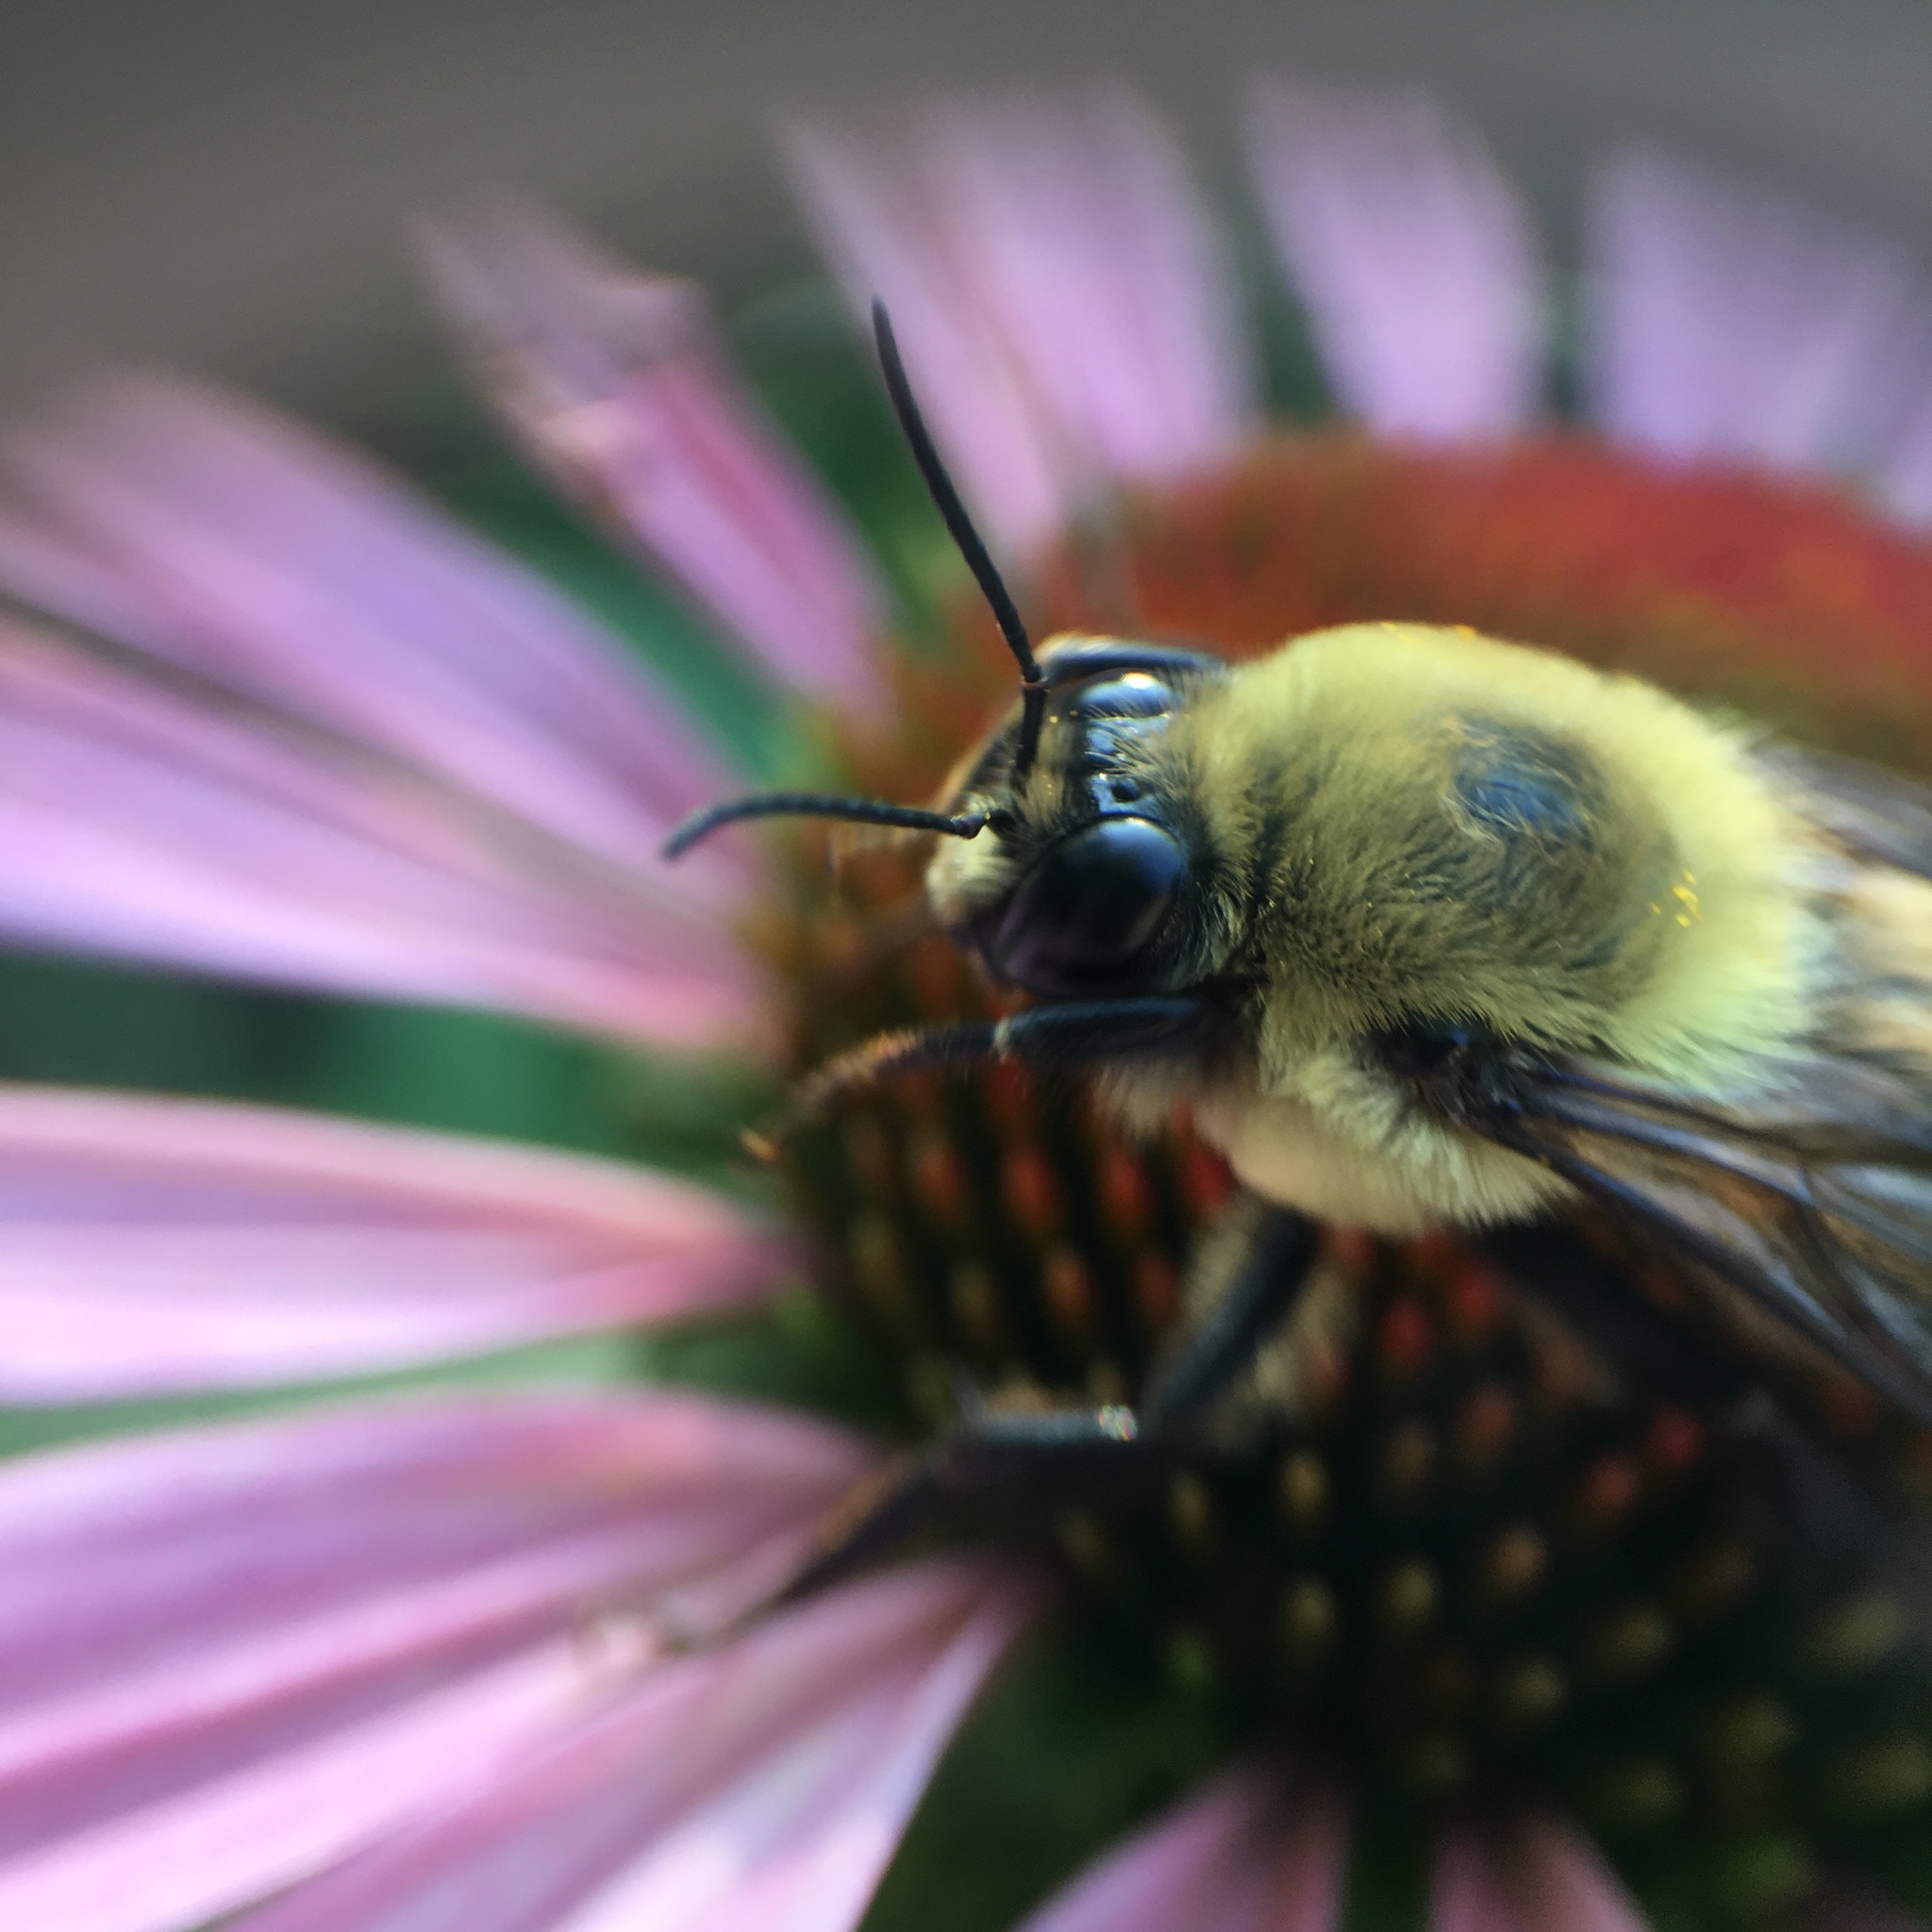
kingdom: Animalia
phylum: Arthropoda
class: Insecta
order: Hymenoptera
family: Apidae
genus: Bombus
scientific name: Bombus griseocollis
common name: Brown-belted bumble bee
